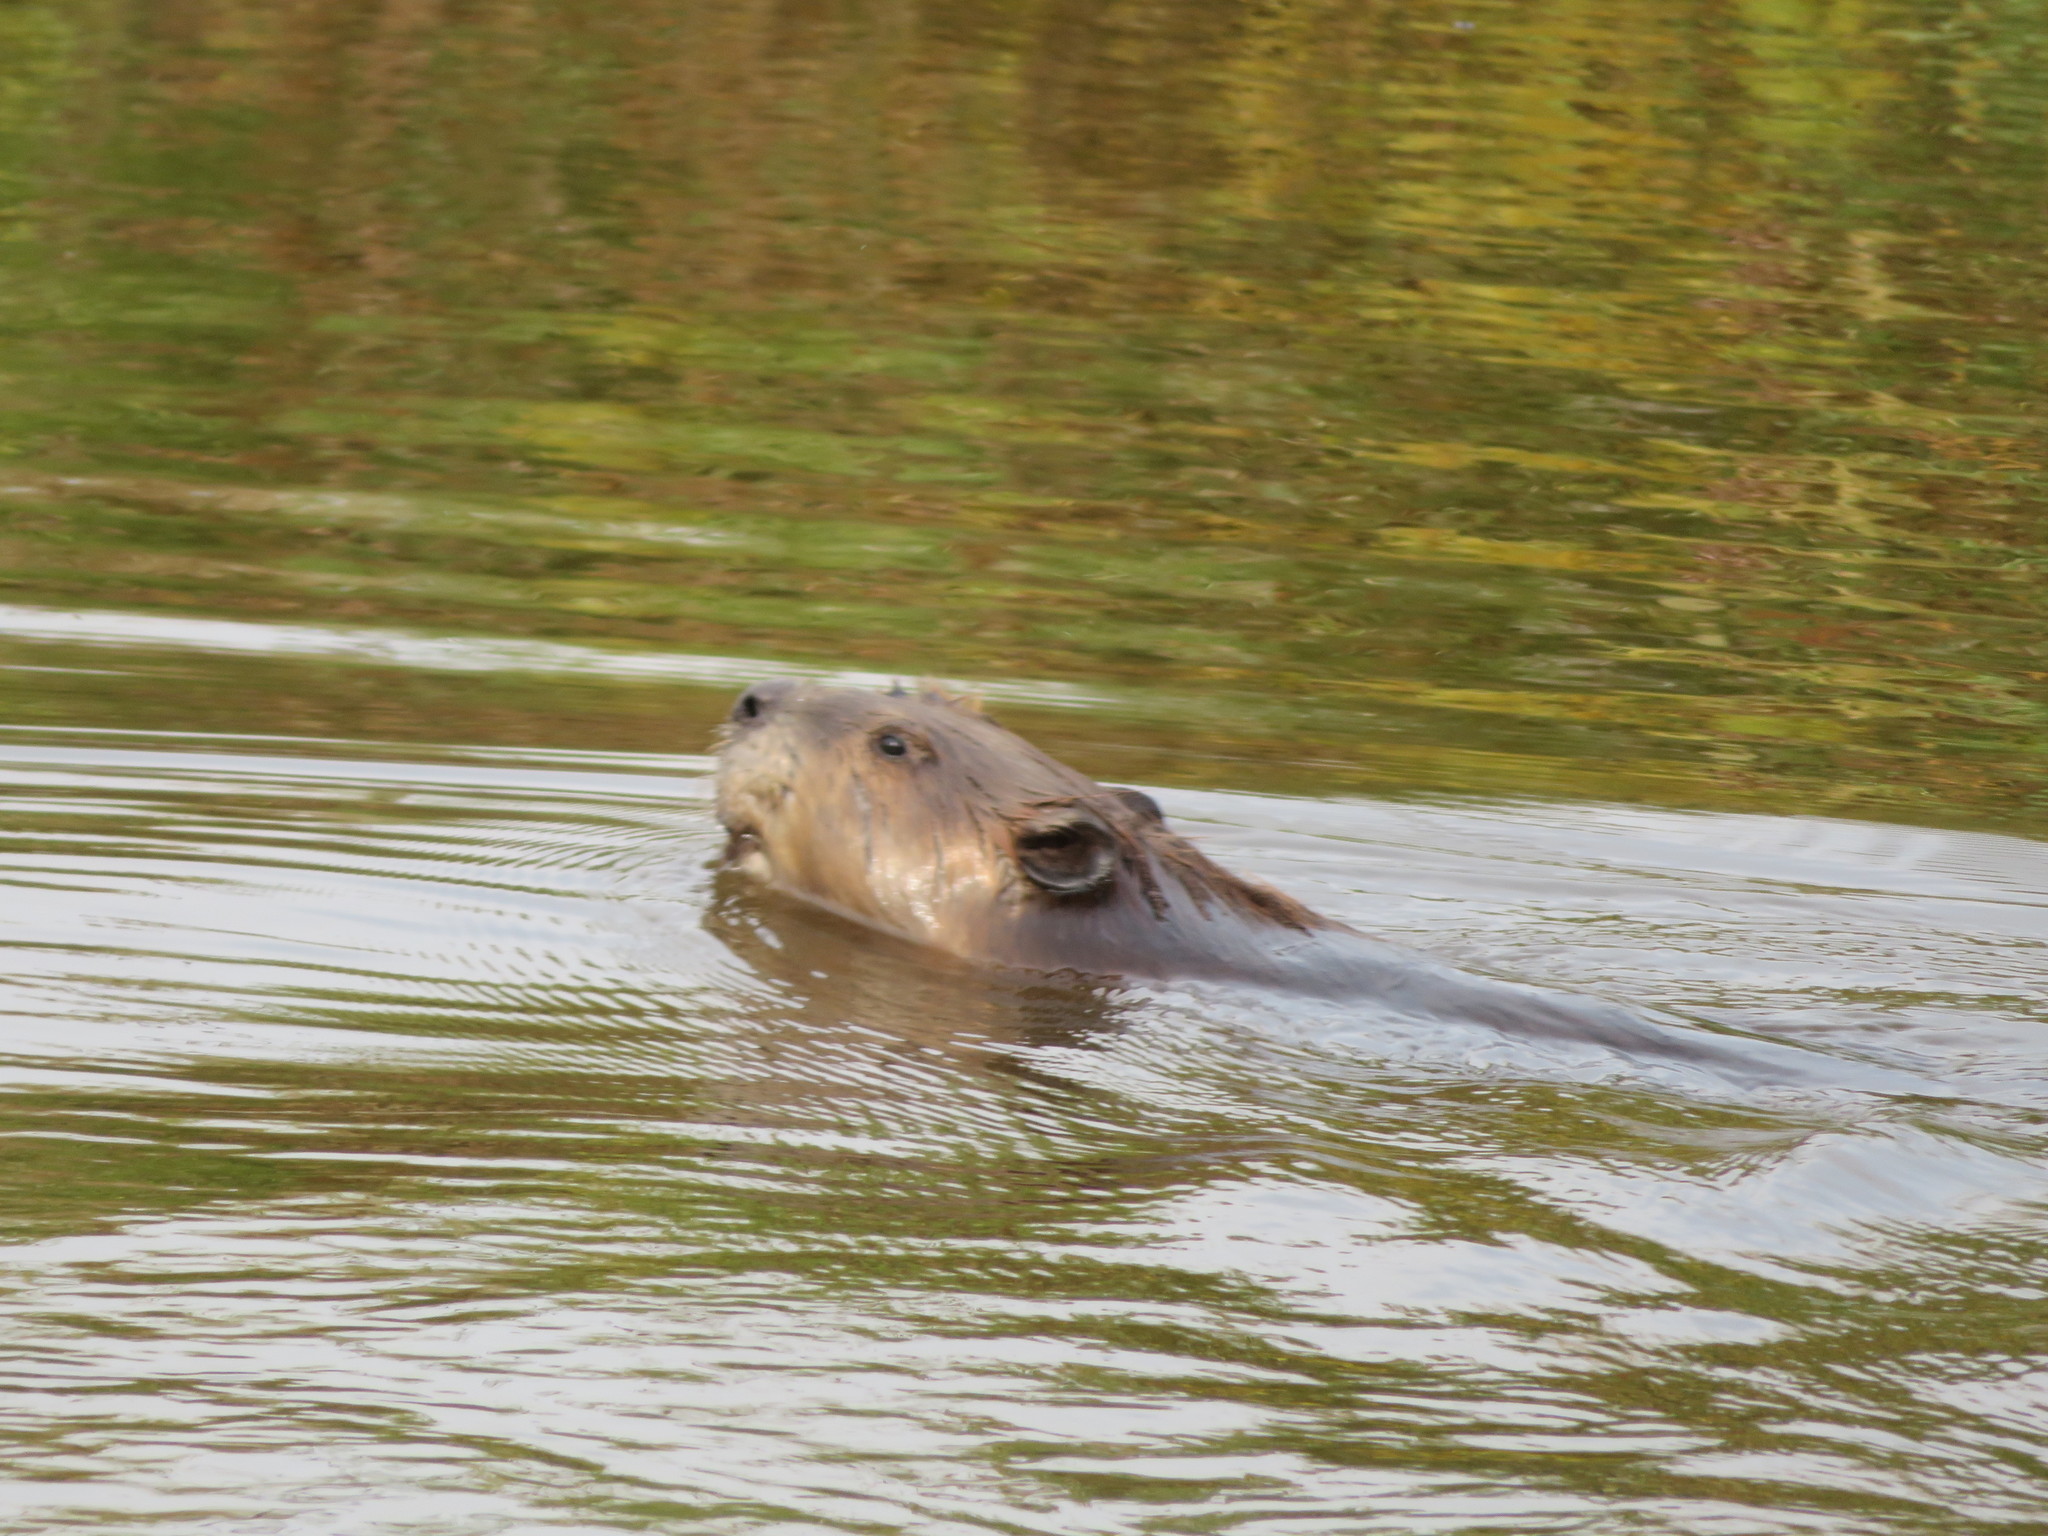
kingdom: Animalia
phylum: Chordata
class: Mammalia
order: Rodentia
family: Castoridae
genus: Castor
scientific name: Castor canadensis
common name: American beaver
